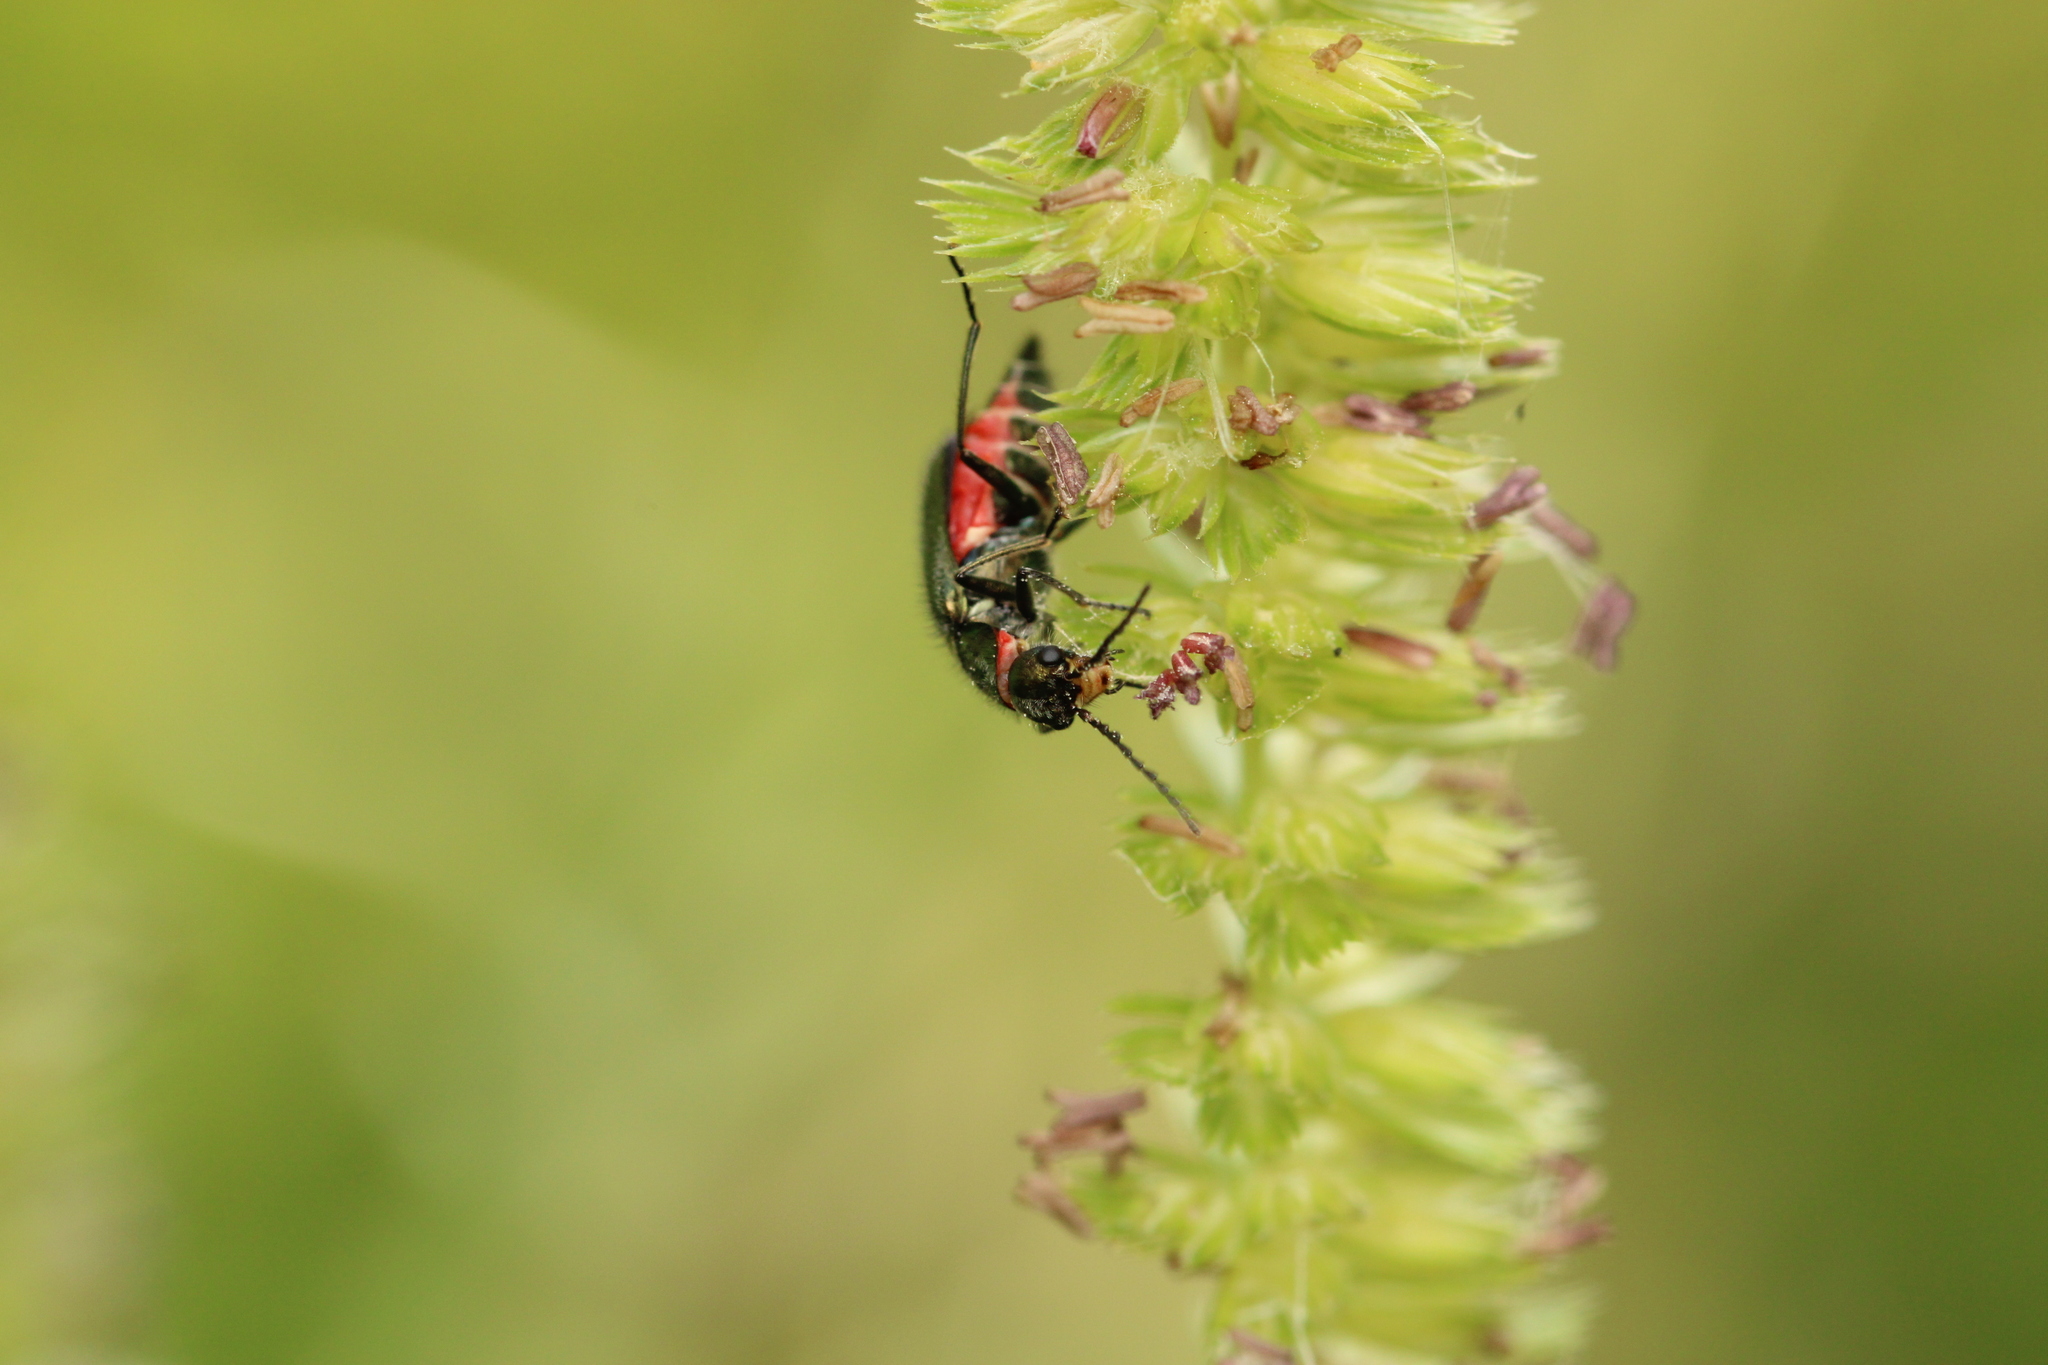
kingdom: Animalia
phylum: Arthropoda
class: Insecta
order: Coleoptera
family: Melyridae
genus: Malachius
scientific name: Malachius bipustulatus
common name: Malachite beetle
